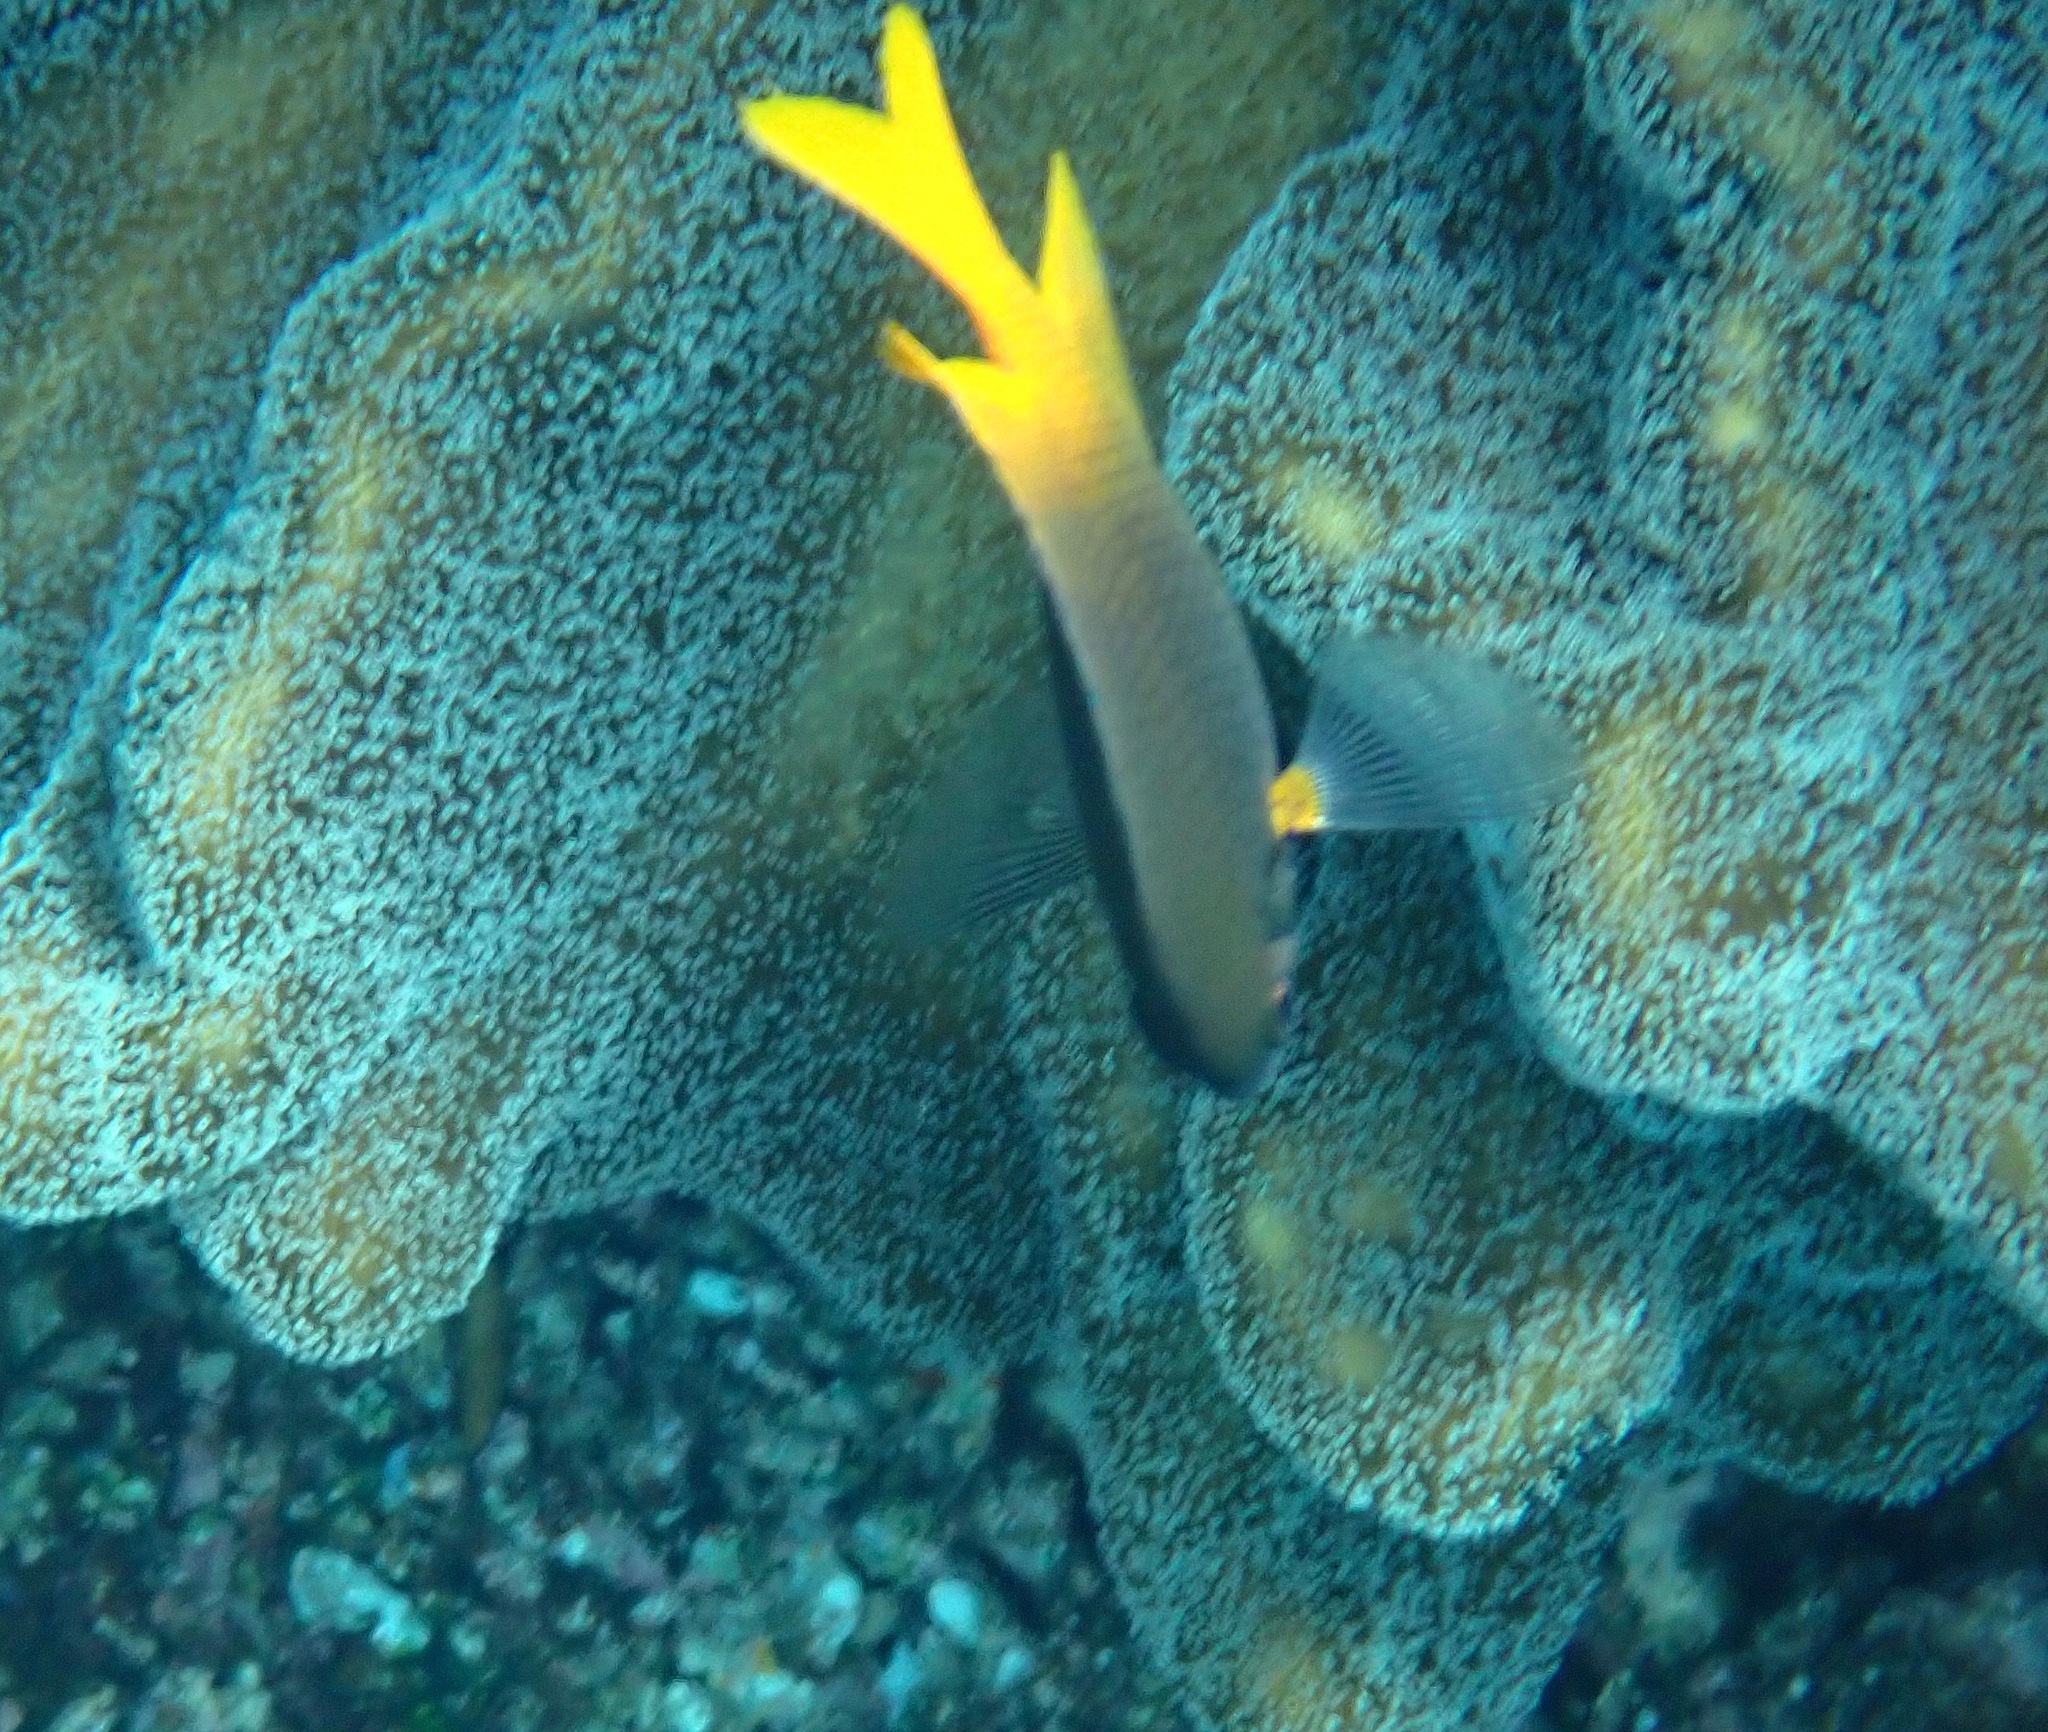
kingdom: Animalia
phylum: Chordata
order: Perciformes
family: Pomacentridae
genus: Neoglyphidodon
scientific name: Neoglyphidodon nigroris
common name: Behn's damsel
